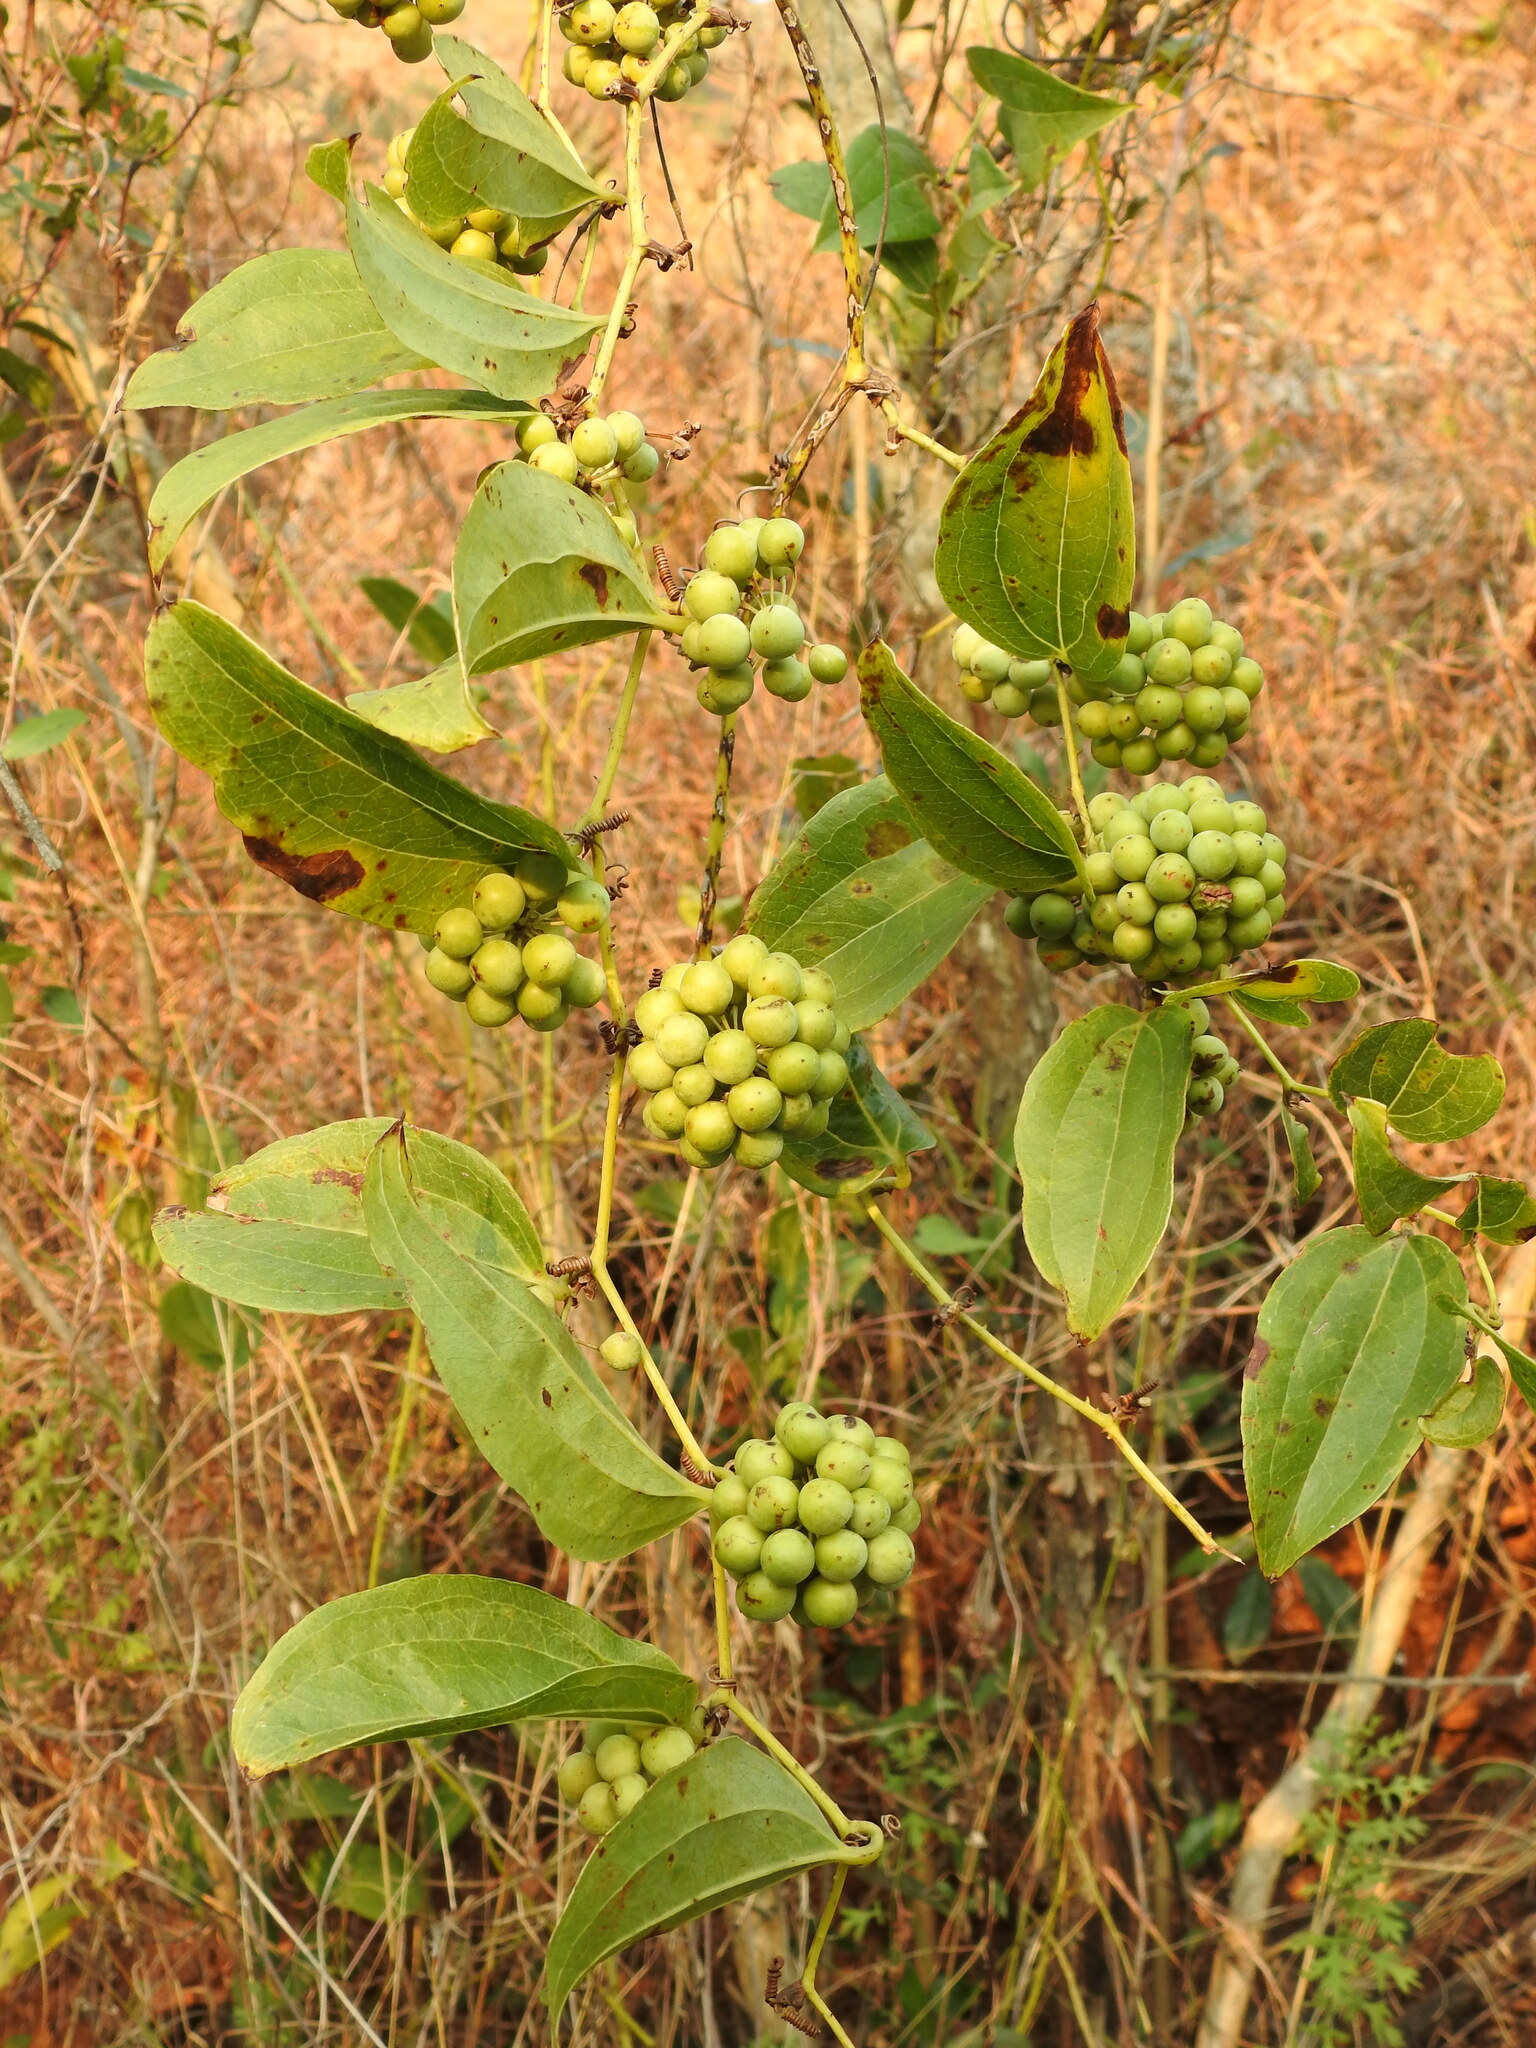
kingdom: Plantae
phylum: Tracheophyta
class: Liliopsida
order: Liliales
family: Smilacaceae
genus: Smilax
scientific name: Smilax anceps
